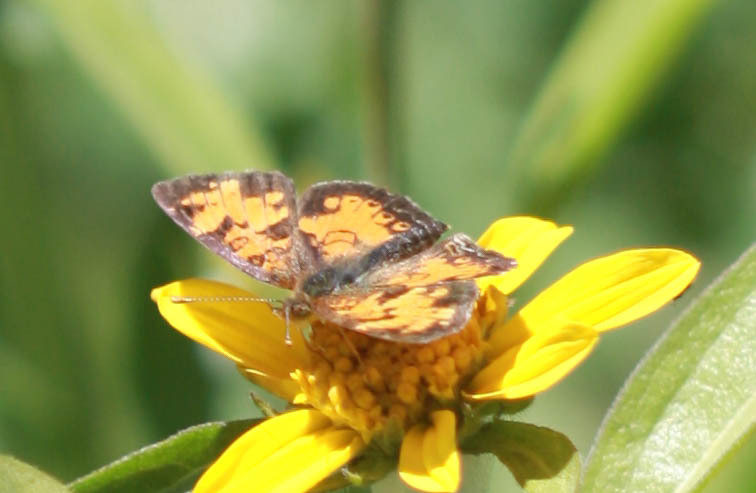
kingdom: Animalia
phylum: Arthropoda
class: Insecta
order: Lepidoptera
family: Nymphalidae
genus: Phyciodes
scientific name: Phyciodes tharos
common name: Pearl crescent
